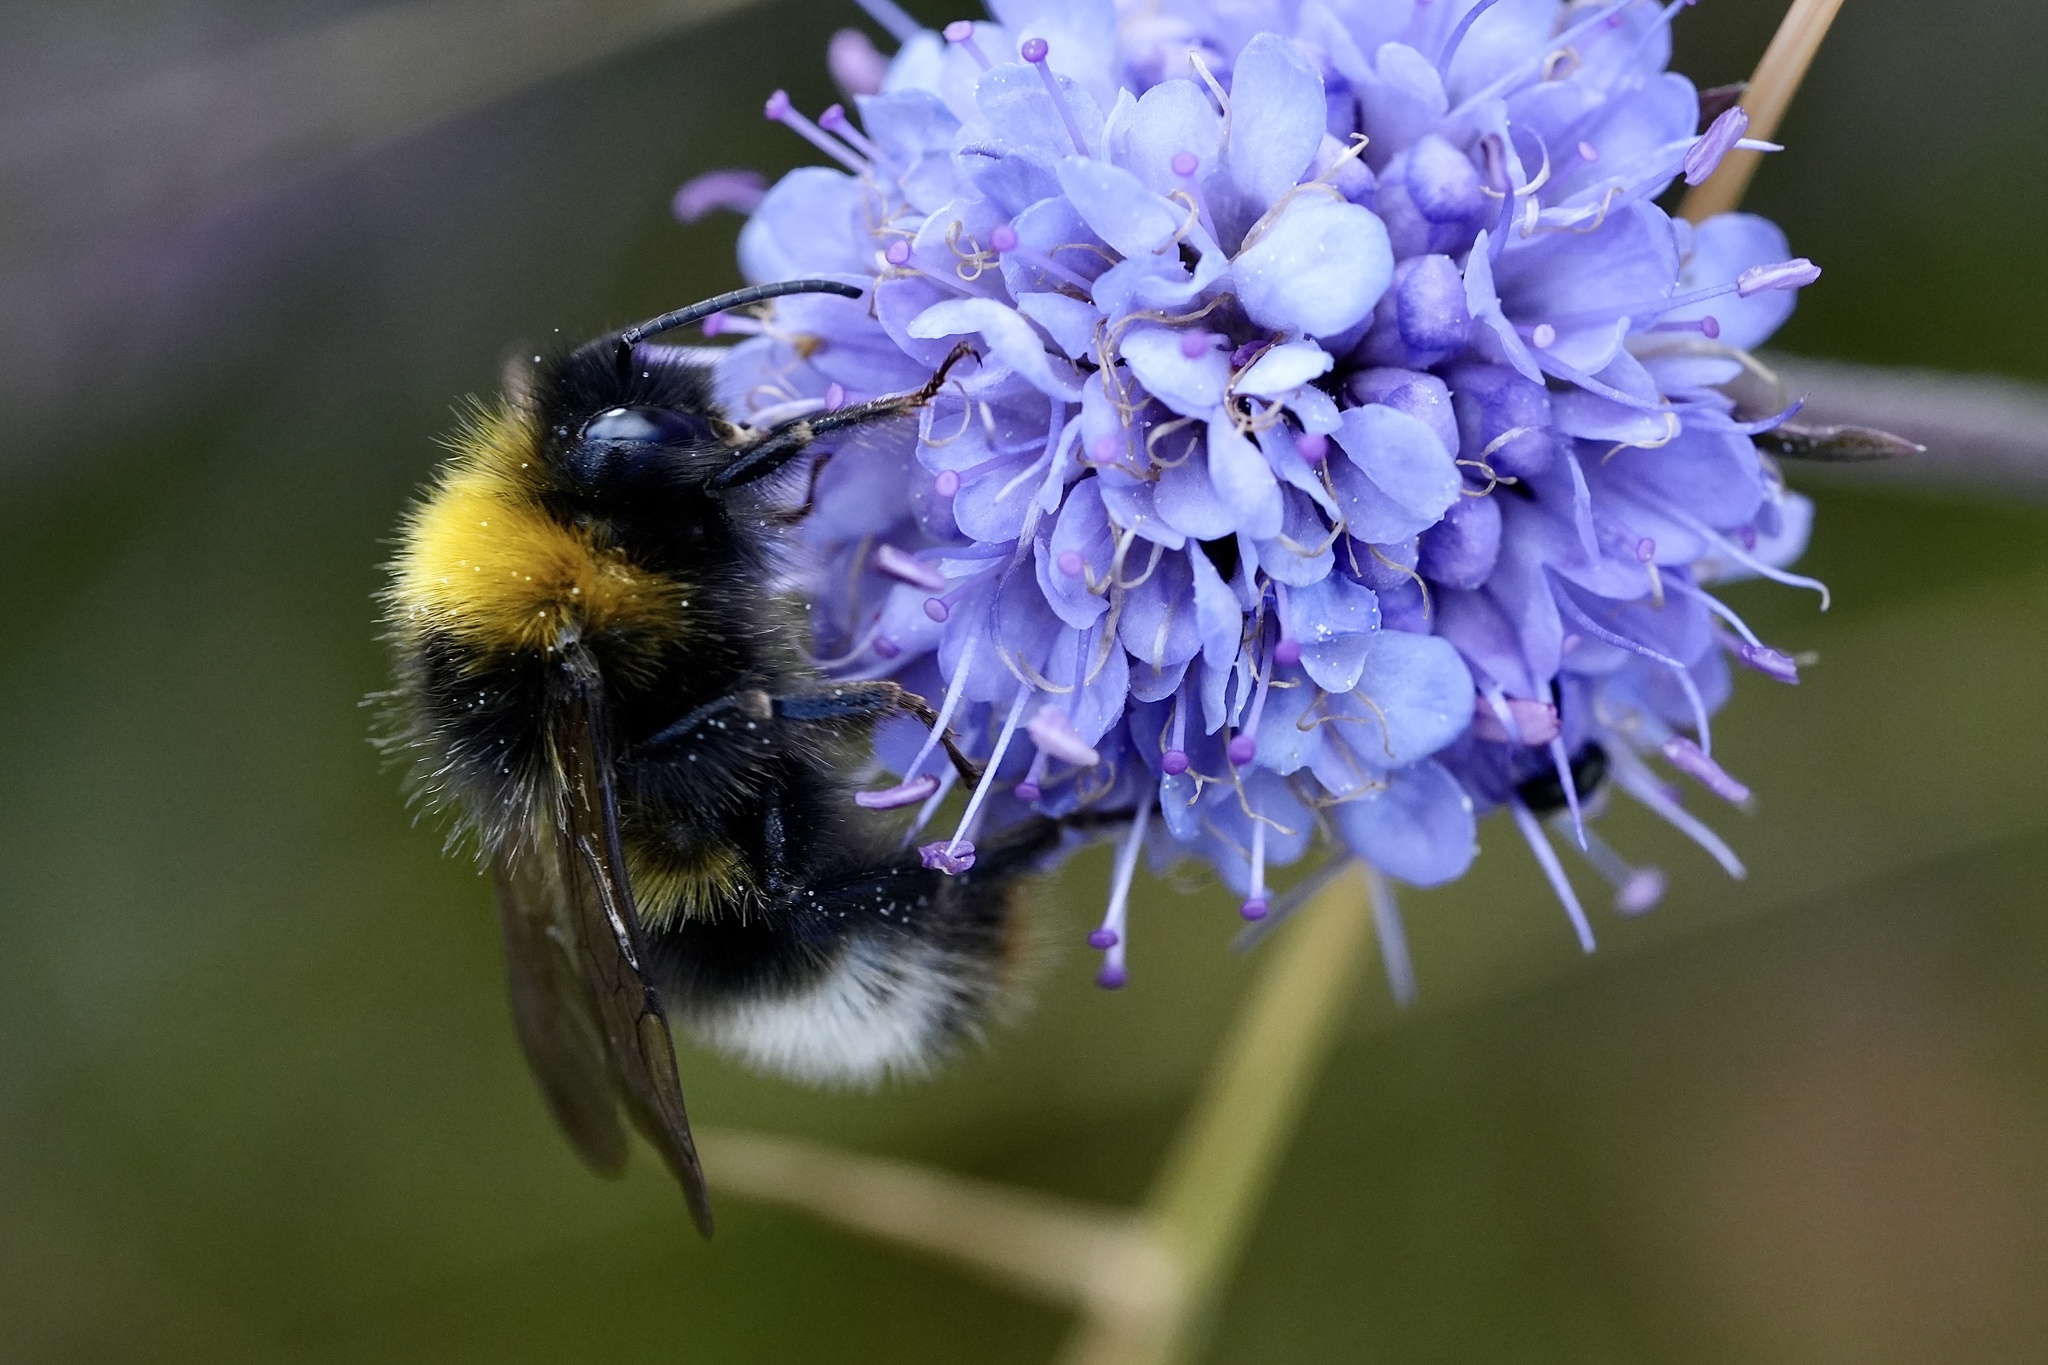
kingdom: Animalia
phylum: Arthropoda
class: Insecta
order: Hymenoptera
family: Apidae
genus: Bombus
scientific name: Bombus sylvestris
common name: Forest cuckoo bee
